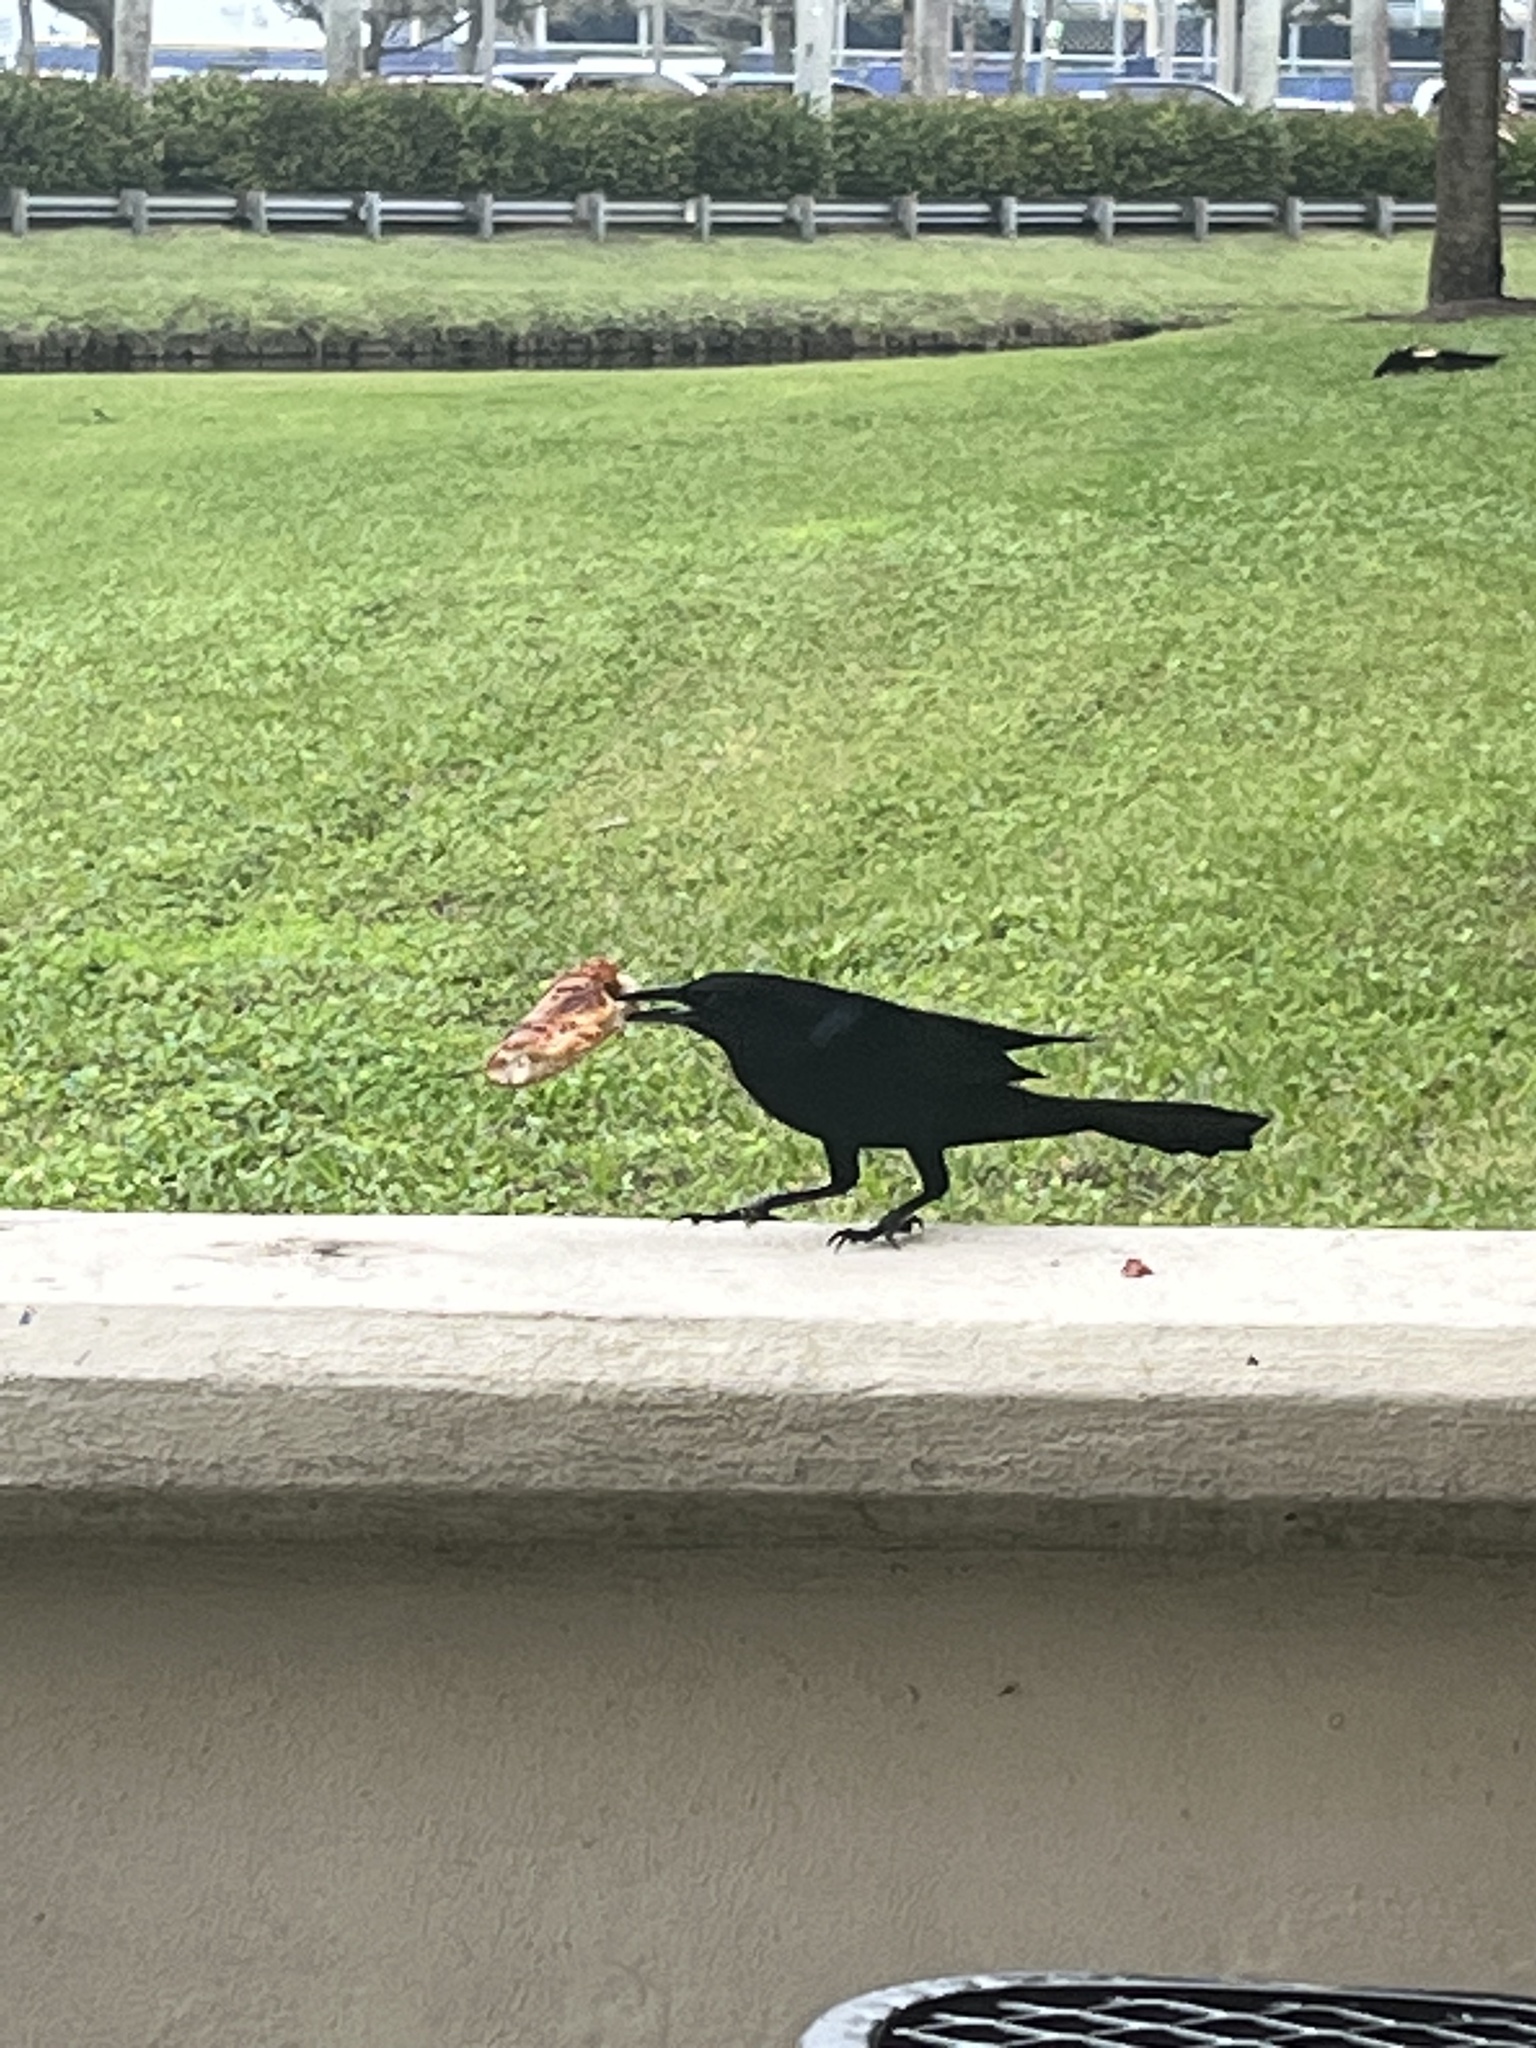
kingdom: Animalia
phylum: Chordata
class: Aves
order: Passeriformes
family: Icteridae
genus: Quiscalus
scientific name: Quiscalus major
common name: Boat-tailed grackle
